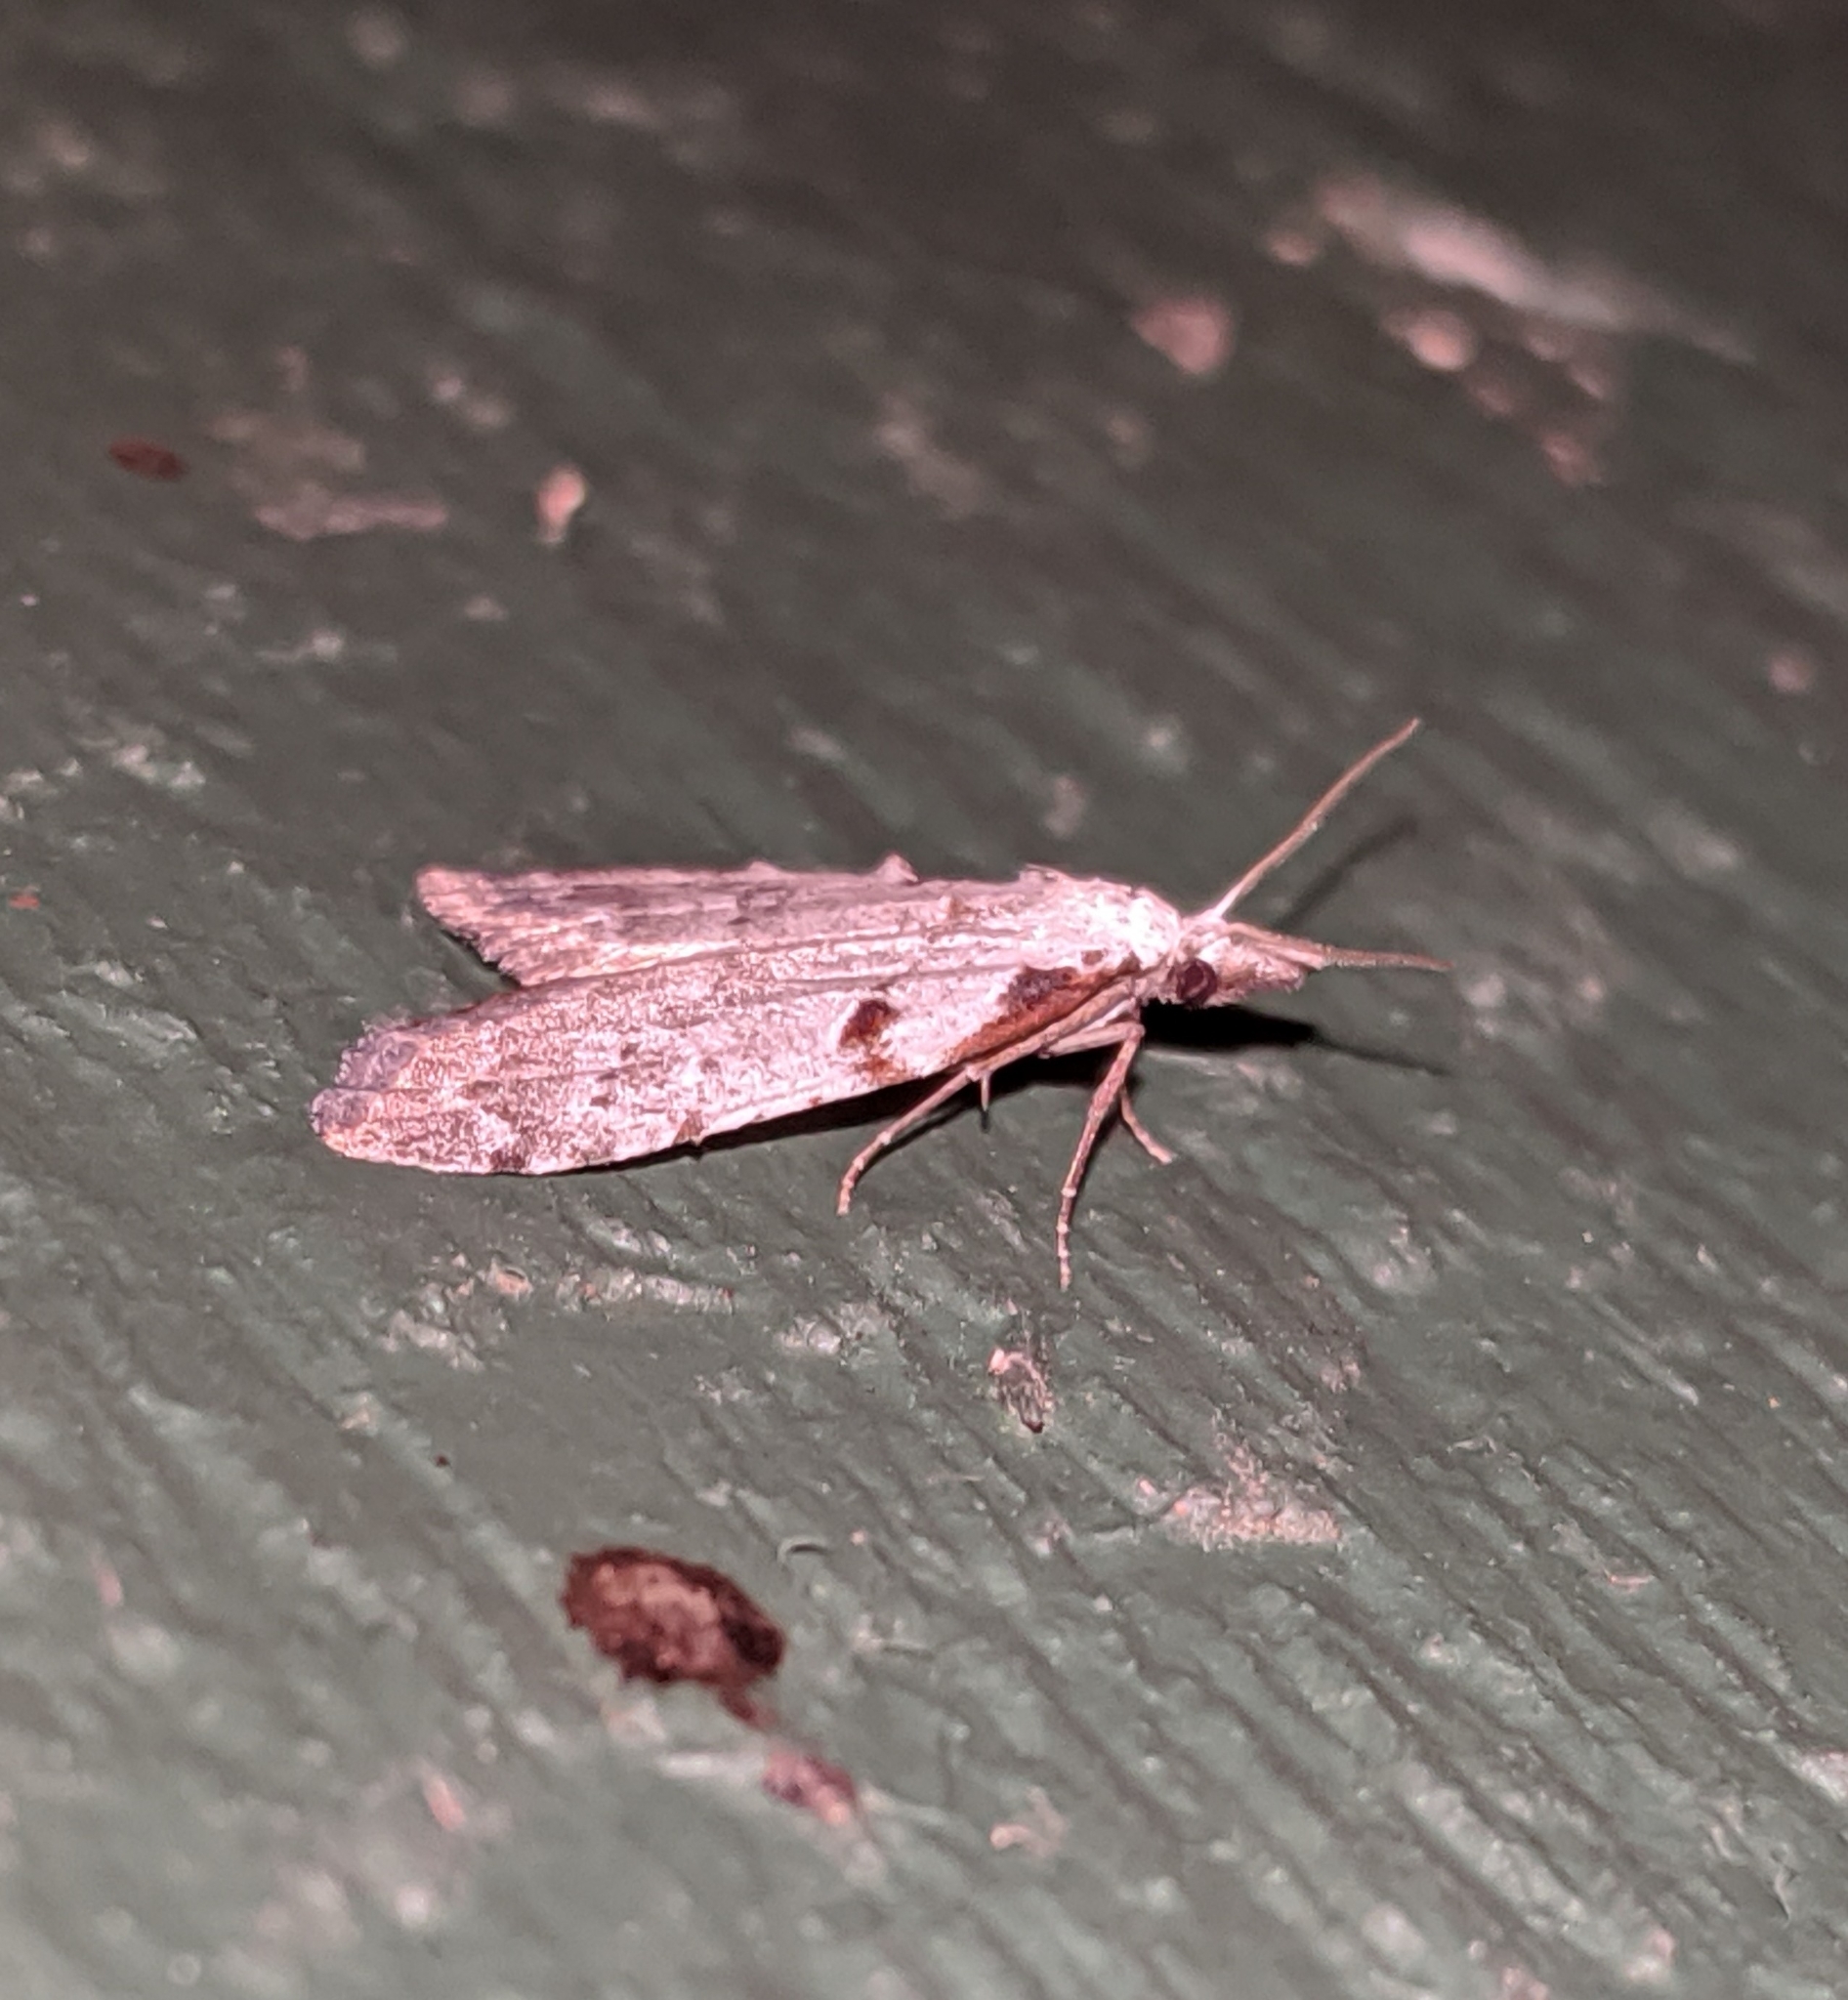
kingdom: Animalia
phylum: Arthropoda
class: Insecta
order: Lepidoptera
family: Nolidae
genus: Nola
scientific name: Nola minna
